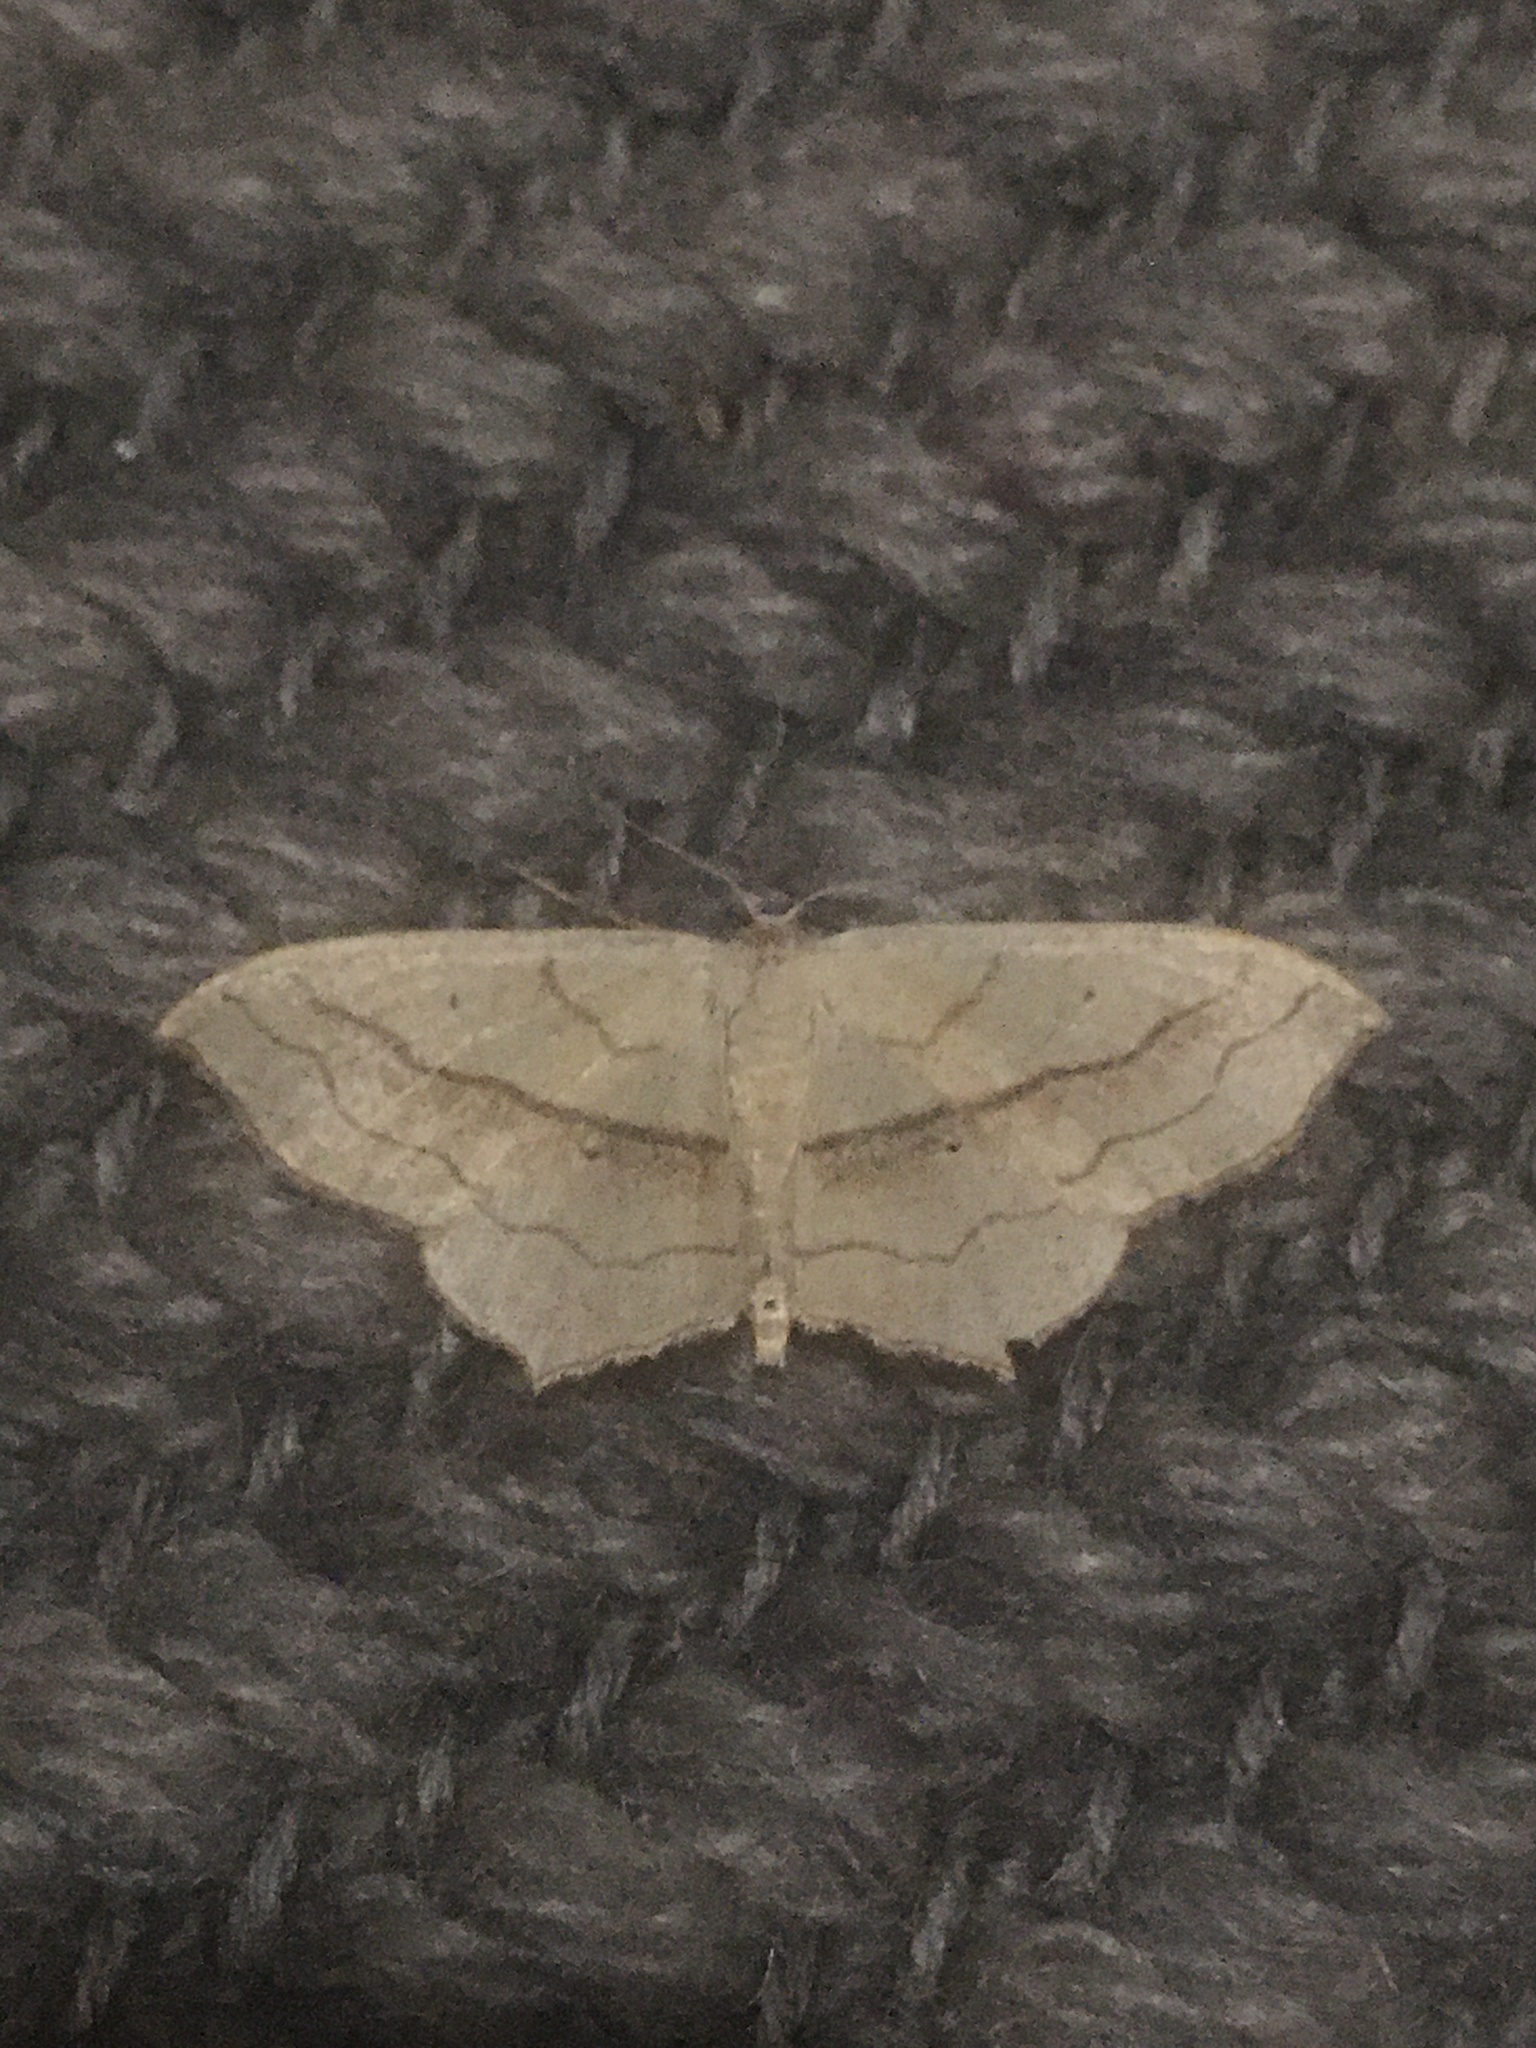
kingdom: Animalia
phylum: Arthropoda
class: Insecta
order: Lepidoptera
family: Geometridae
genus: Scopula
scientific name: Scopula imitaria
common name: Small blood-vein
